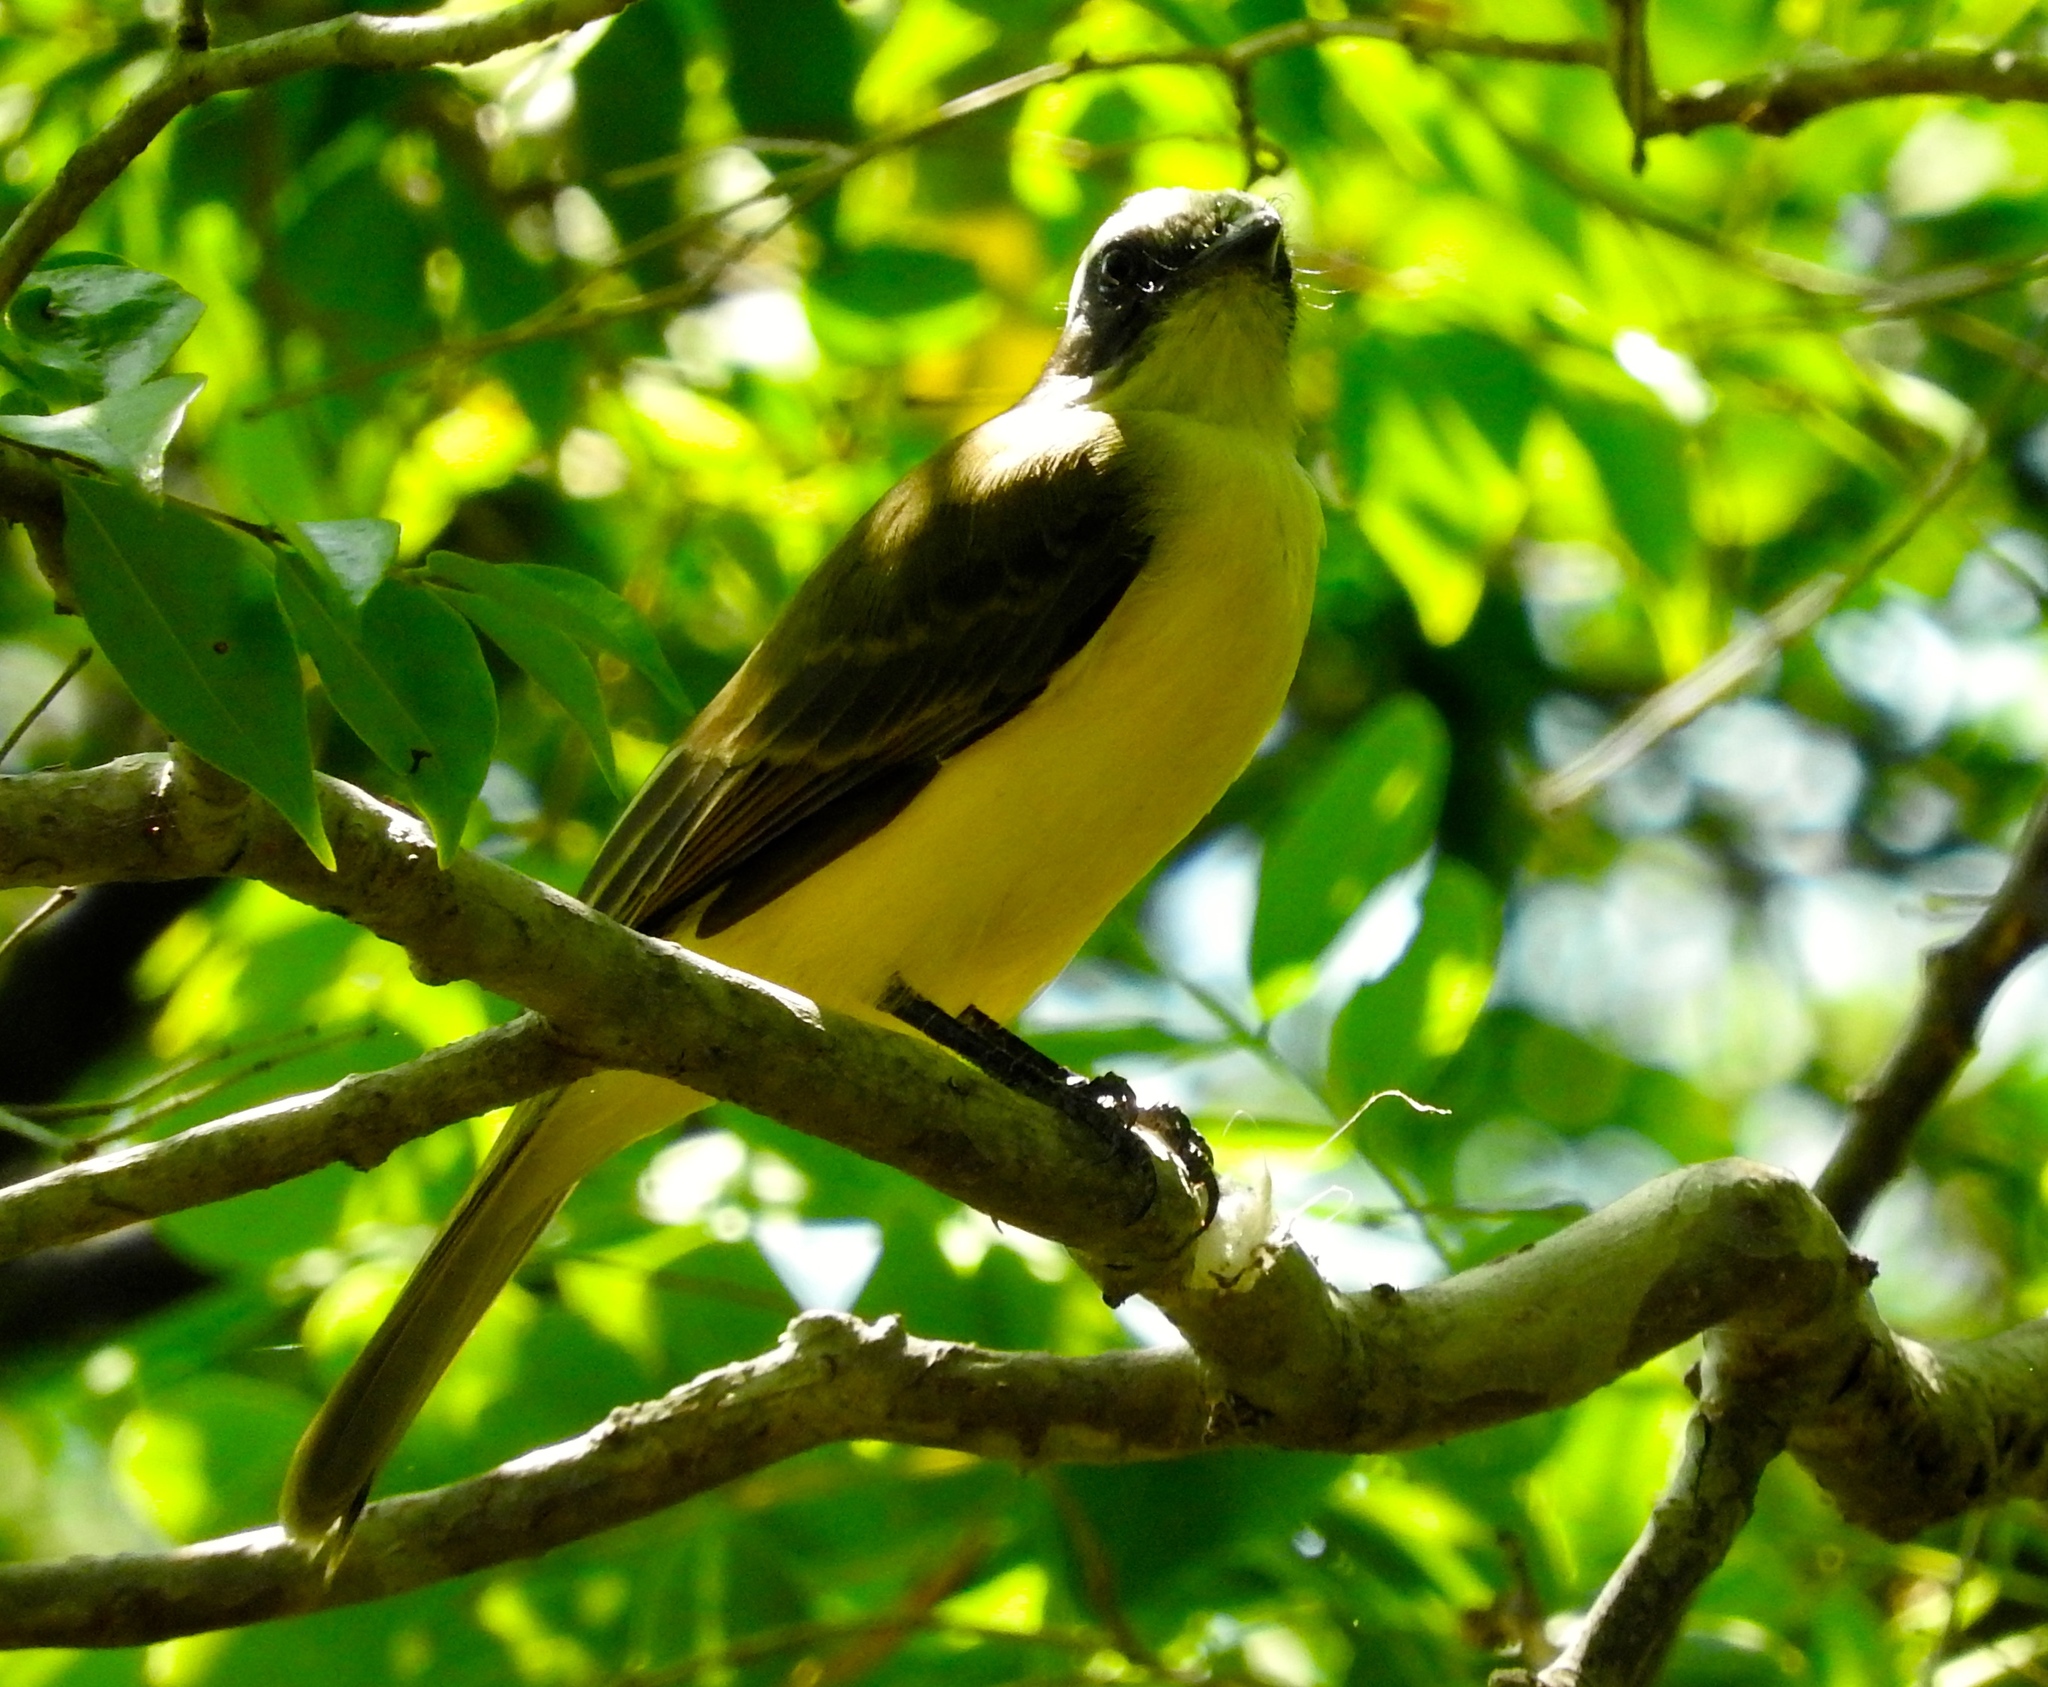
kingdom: Animalia
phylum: Chordata
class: Aves
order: Passeriformes
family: Tyrannidae
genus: Myiozetetes
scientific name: Myiozetetes similis
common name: Social flycatcher
